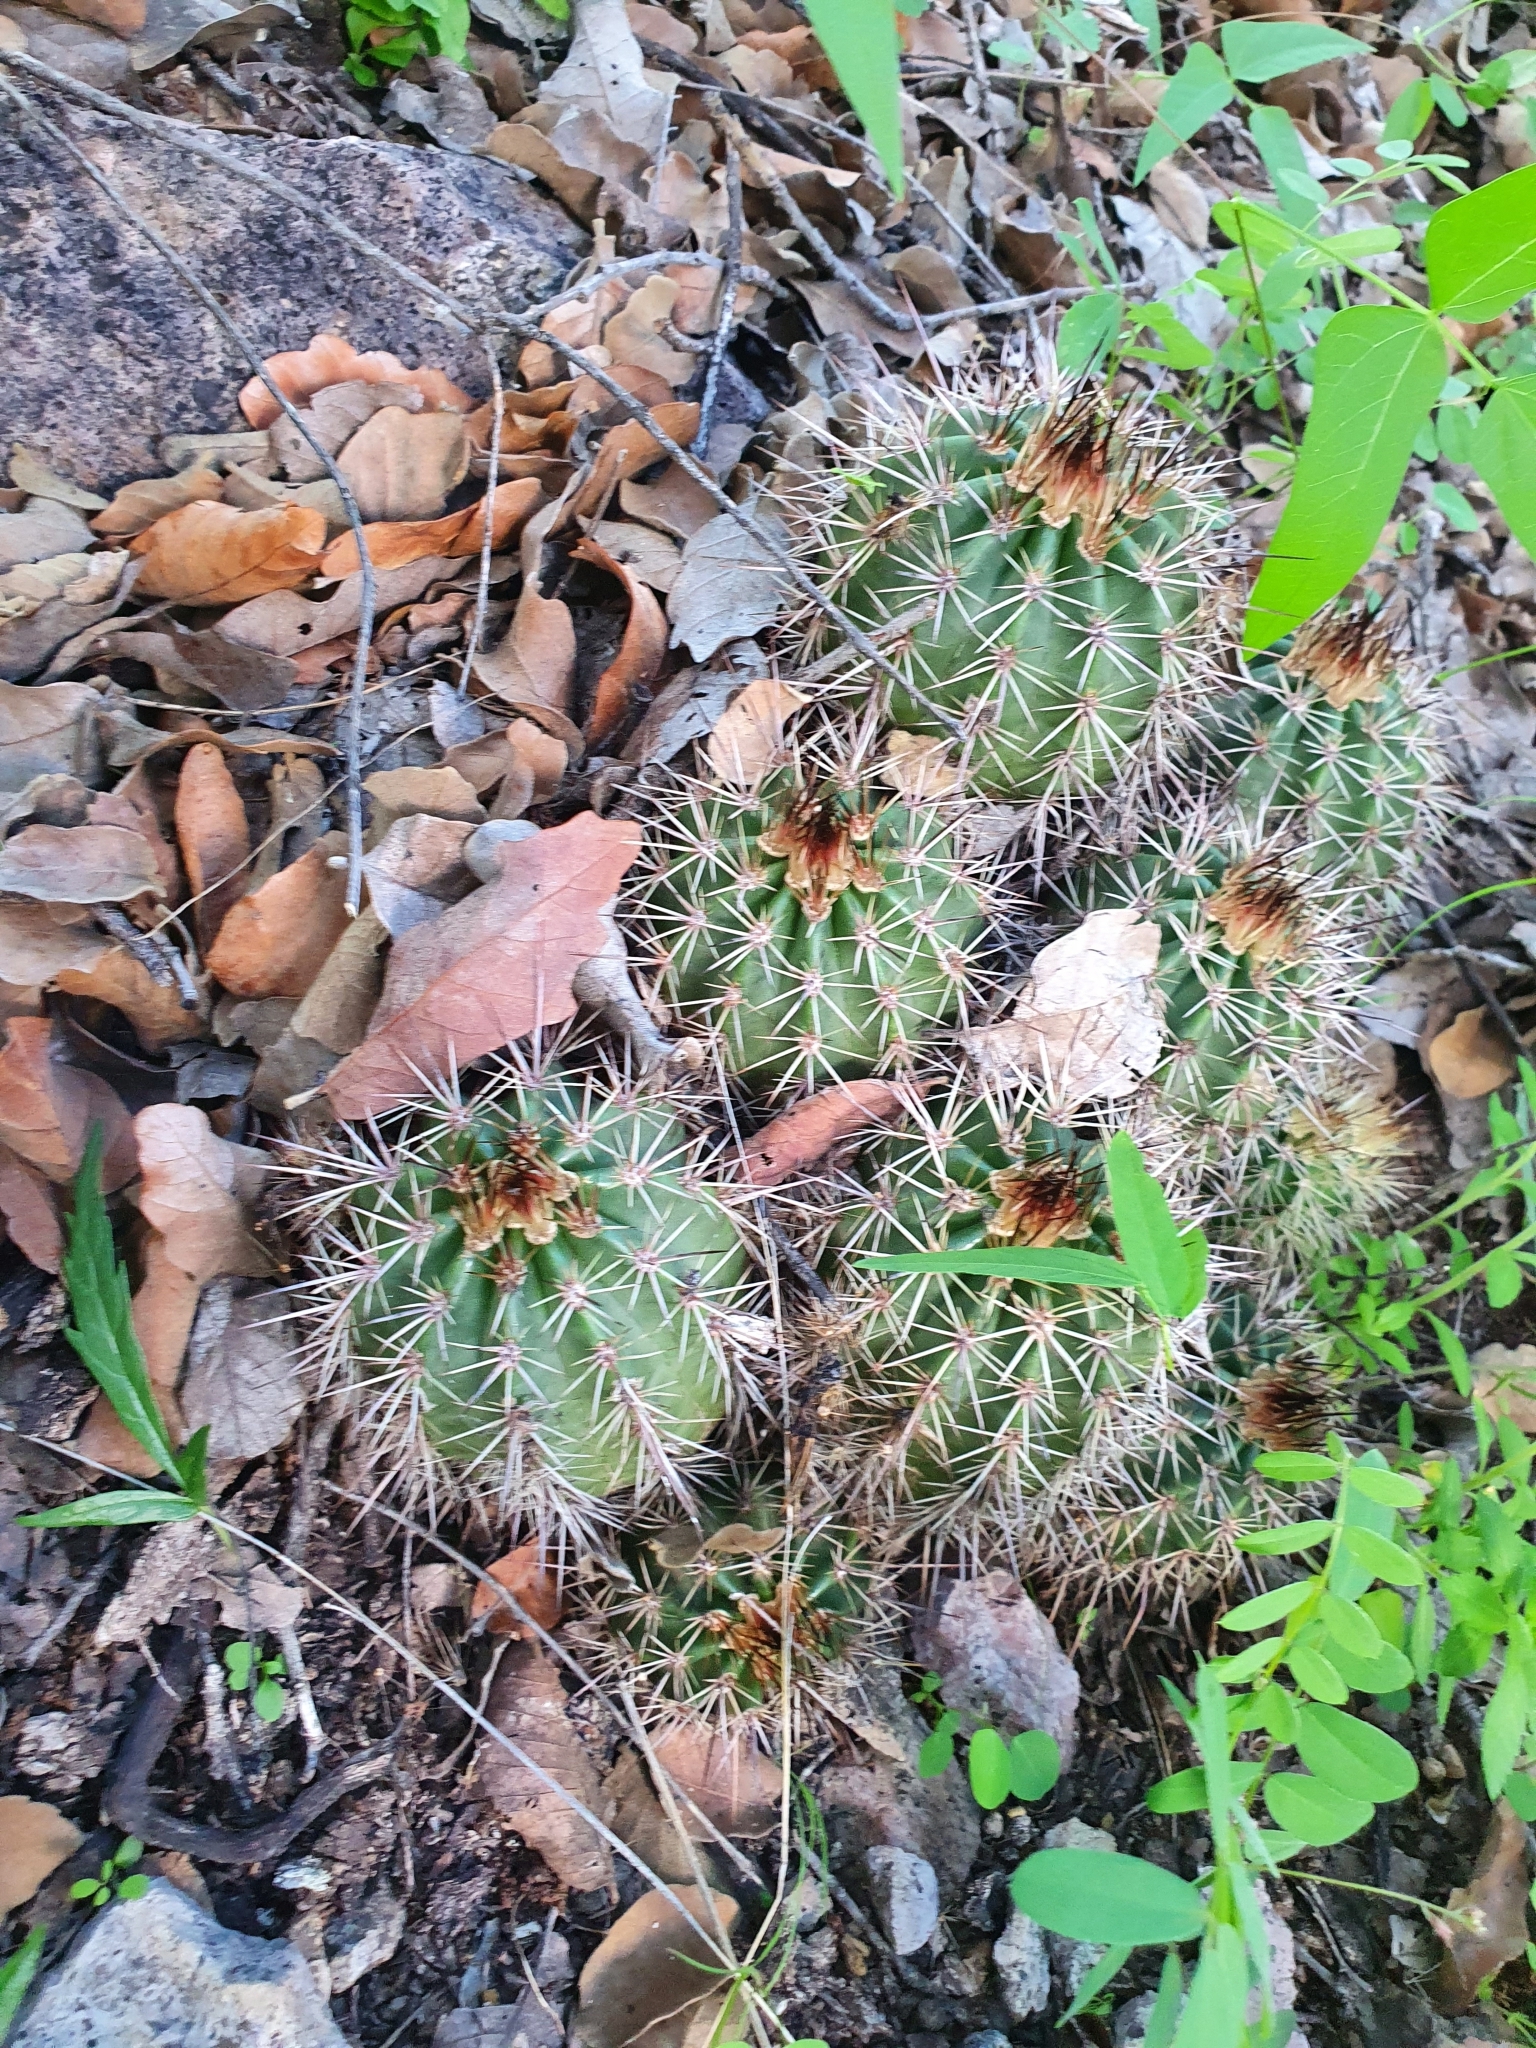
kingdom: Plantae
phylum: Tracheophyta
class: Magnoliopsida
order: Caryophyllales
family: Cactaceae
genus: Echinocereus
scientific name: Echinocereus polyacanthus
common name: Mojave mound cactus
